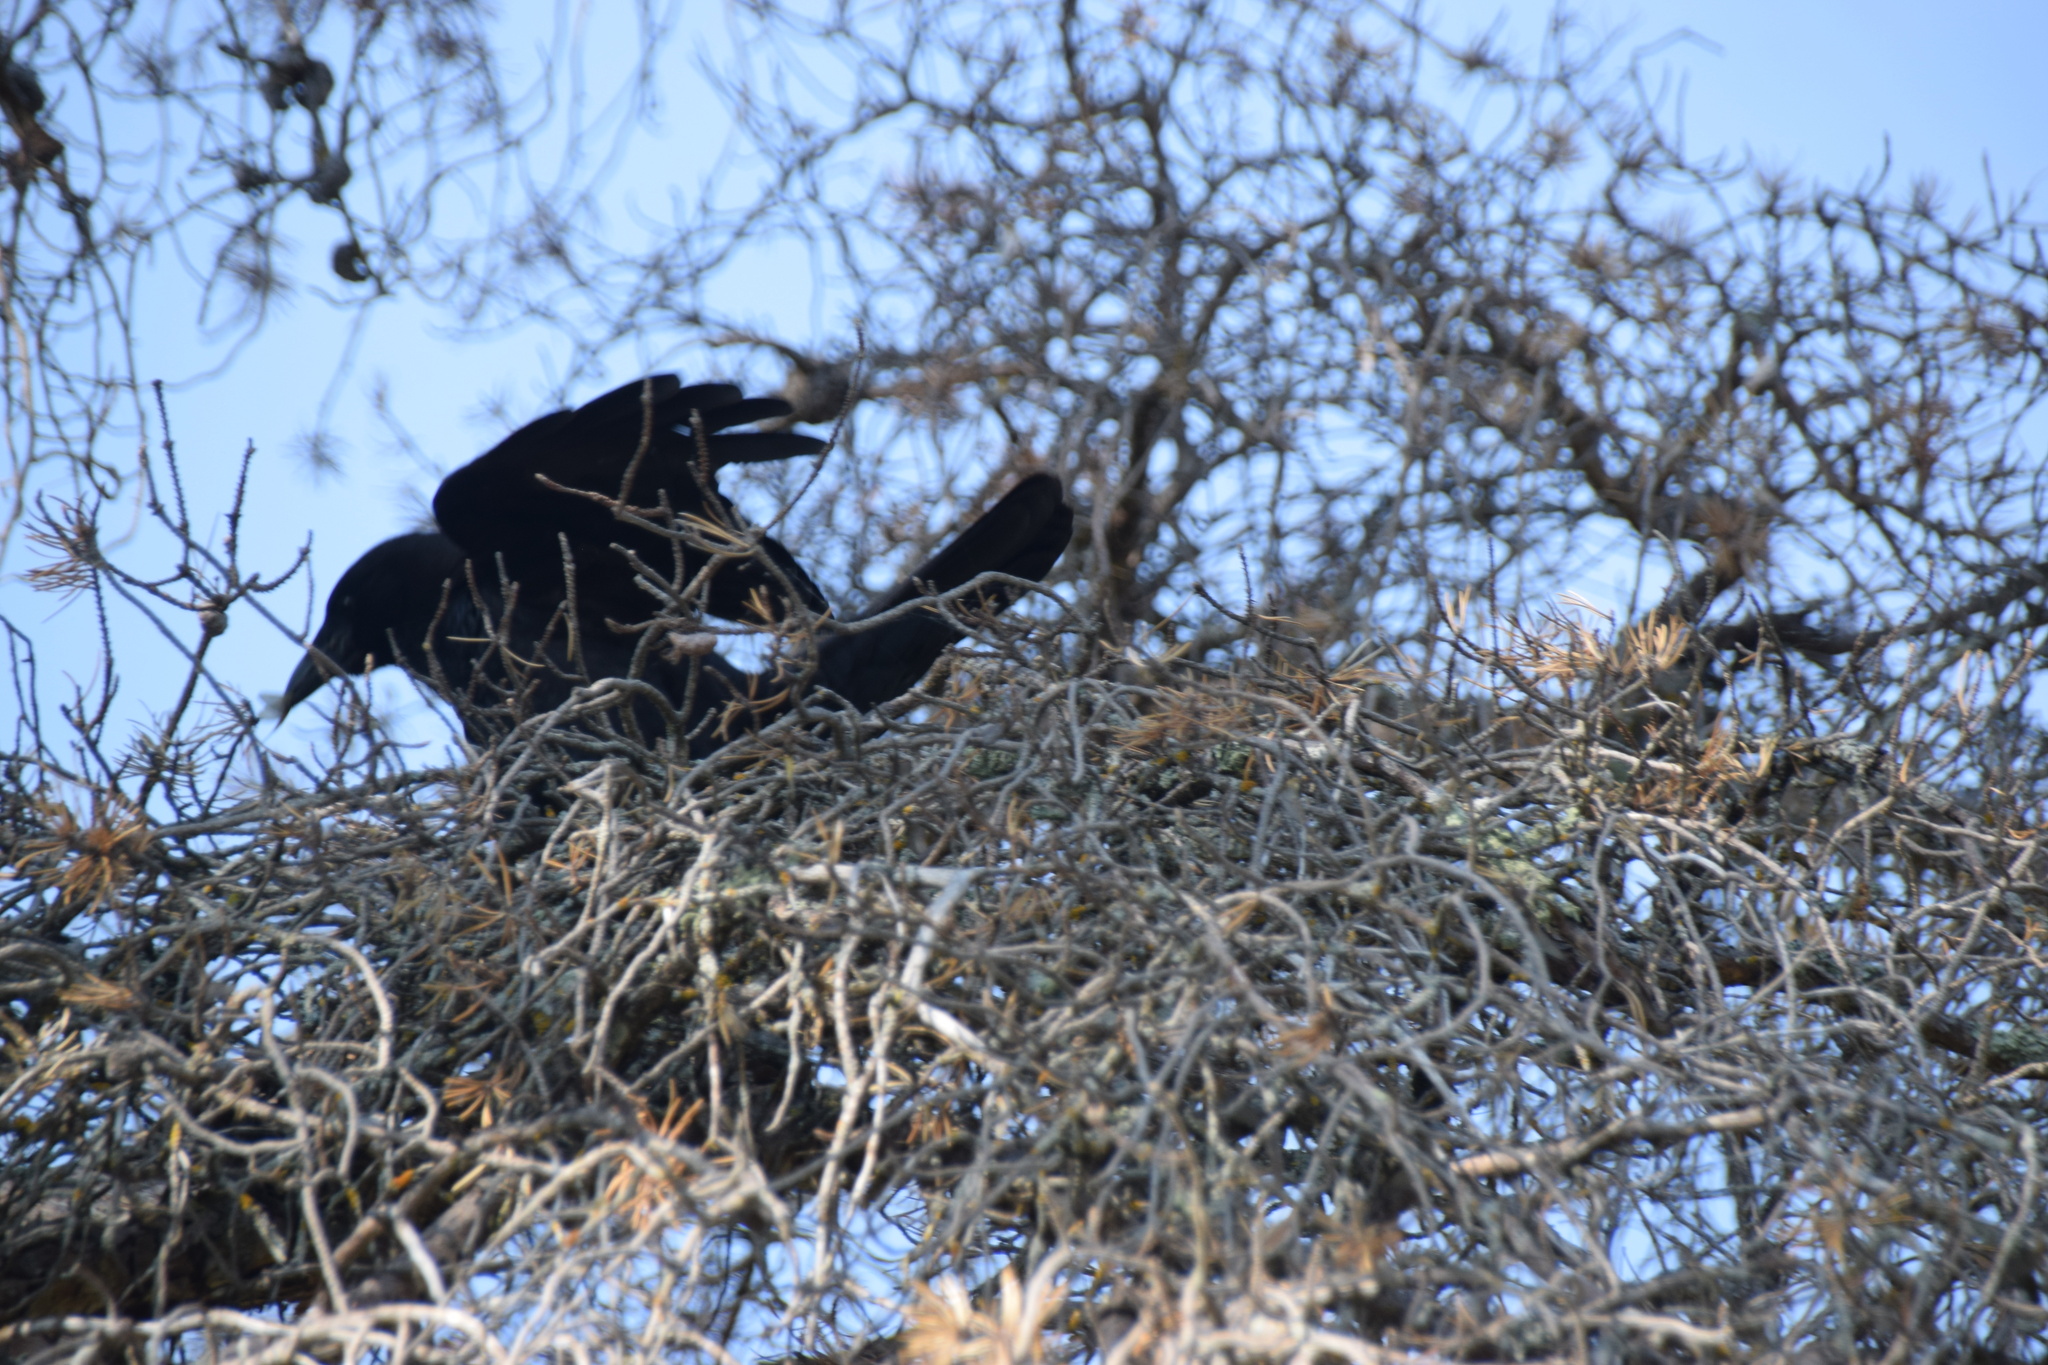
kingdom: Animalia
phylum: Chordata
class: Aves
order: Passeriformes
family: Corvidae
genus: Corvus
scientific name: Corvus corax
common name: Common raven
